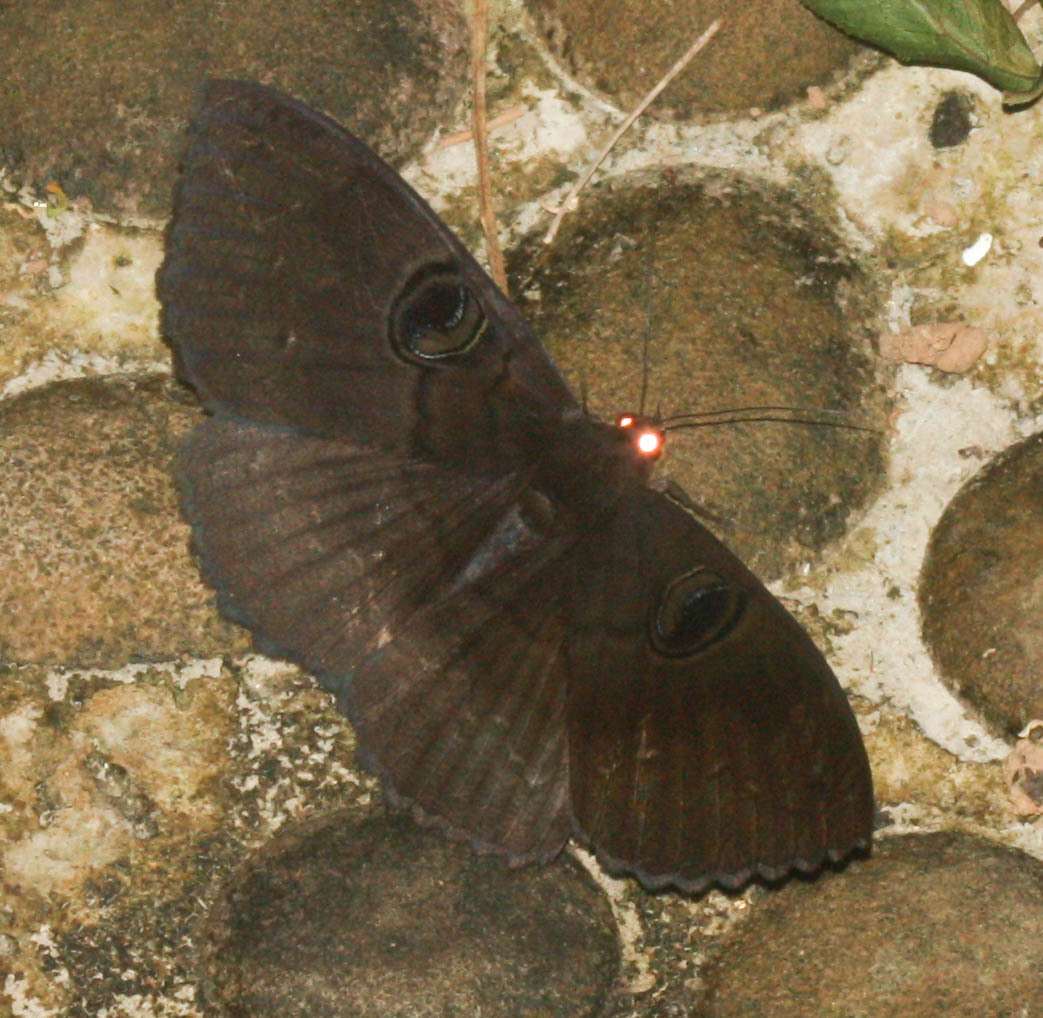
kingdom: Animalia
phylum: Arthropoda
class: Insecta
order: Lepidoptera
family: Erebidae
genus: Erebus
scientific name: Erebus caprimulgus
